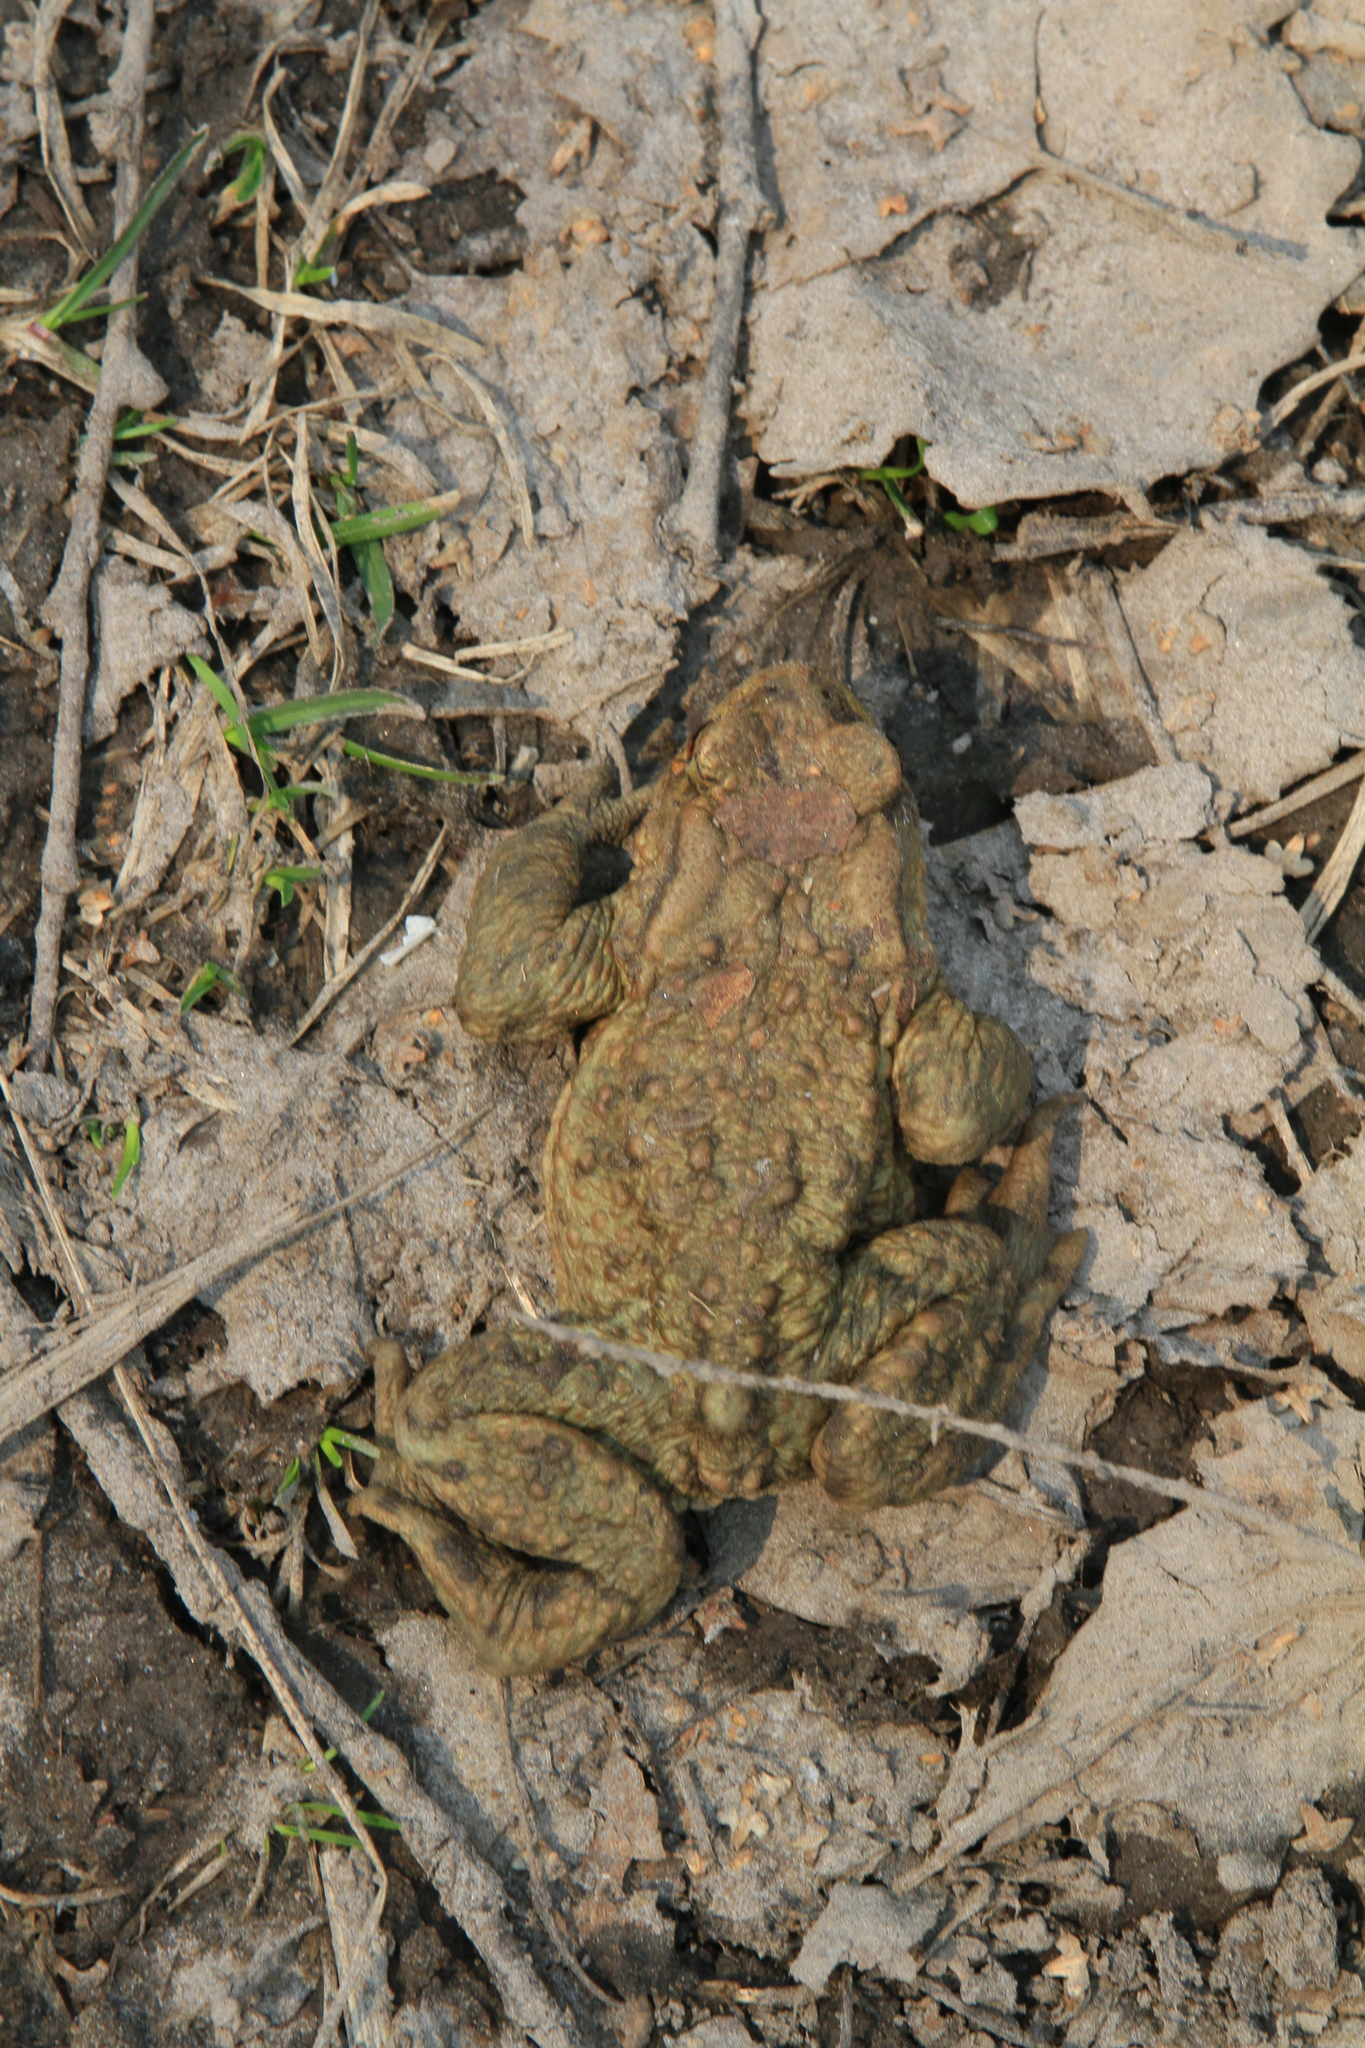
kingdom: Animalia
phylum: Chordata
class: Amphibia
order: Anura
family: Bufonidae
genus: Bufo
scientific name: Bufo bufo
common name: Common toad
